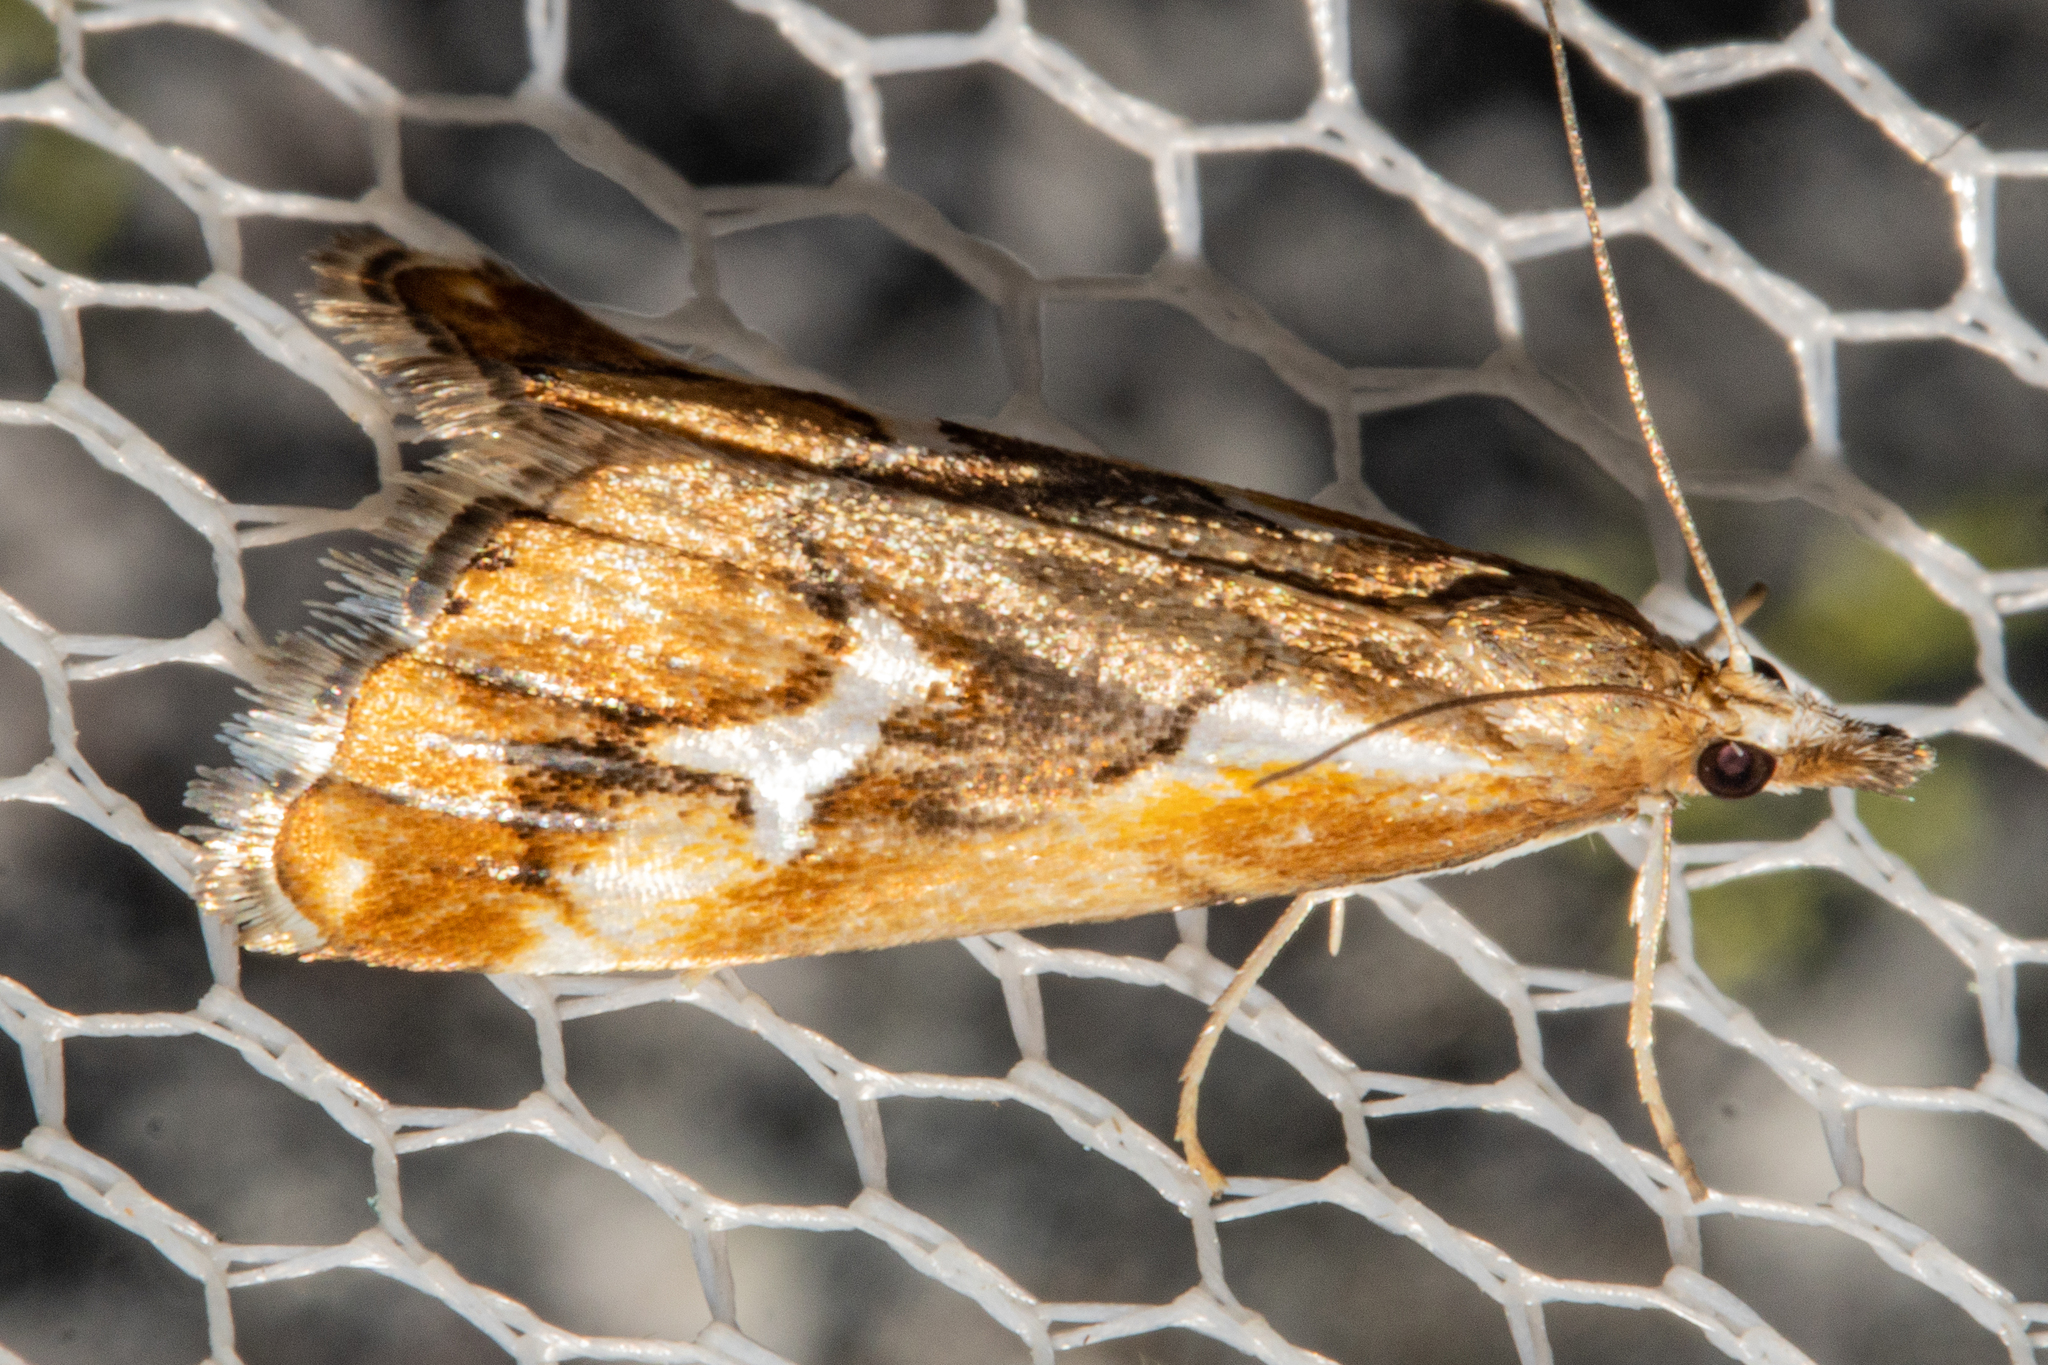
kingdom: Animalia
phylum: Arthropoda
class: Insecta
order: Lepidoptera
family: Crambidae
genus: Glaucocharis
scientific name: Glaucocharis interruptus
